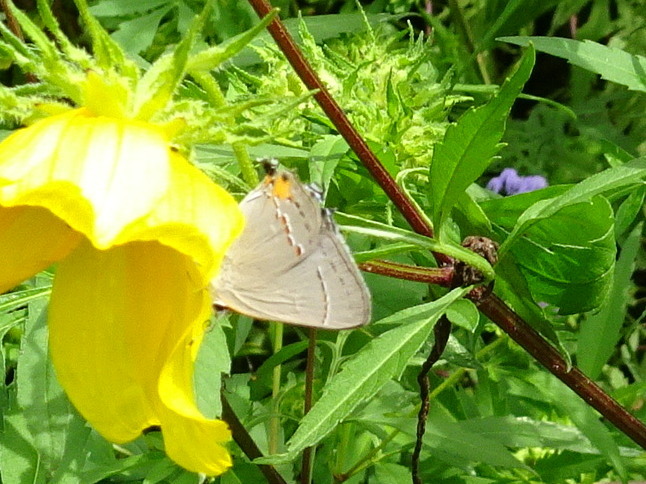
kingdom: Animalia
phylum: Arthropoda
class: Insecta
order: Lepidoptera
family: Lycaenidae
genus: Strymon
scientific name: Strymon melinus
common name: Gray hairstreak
